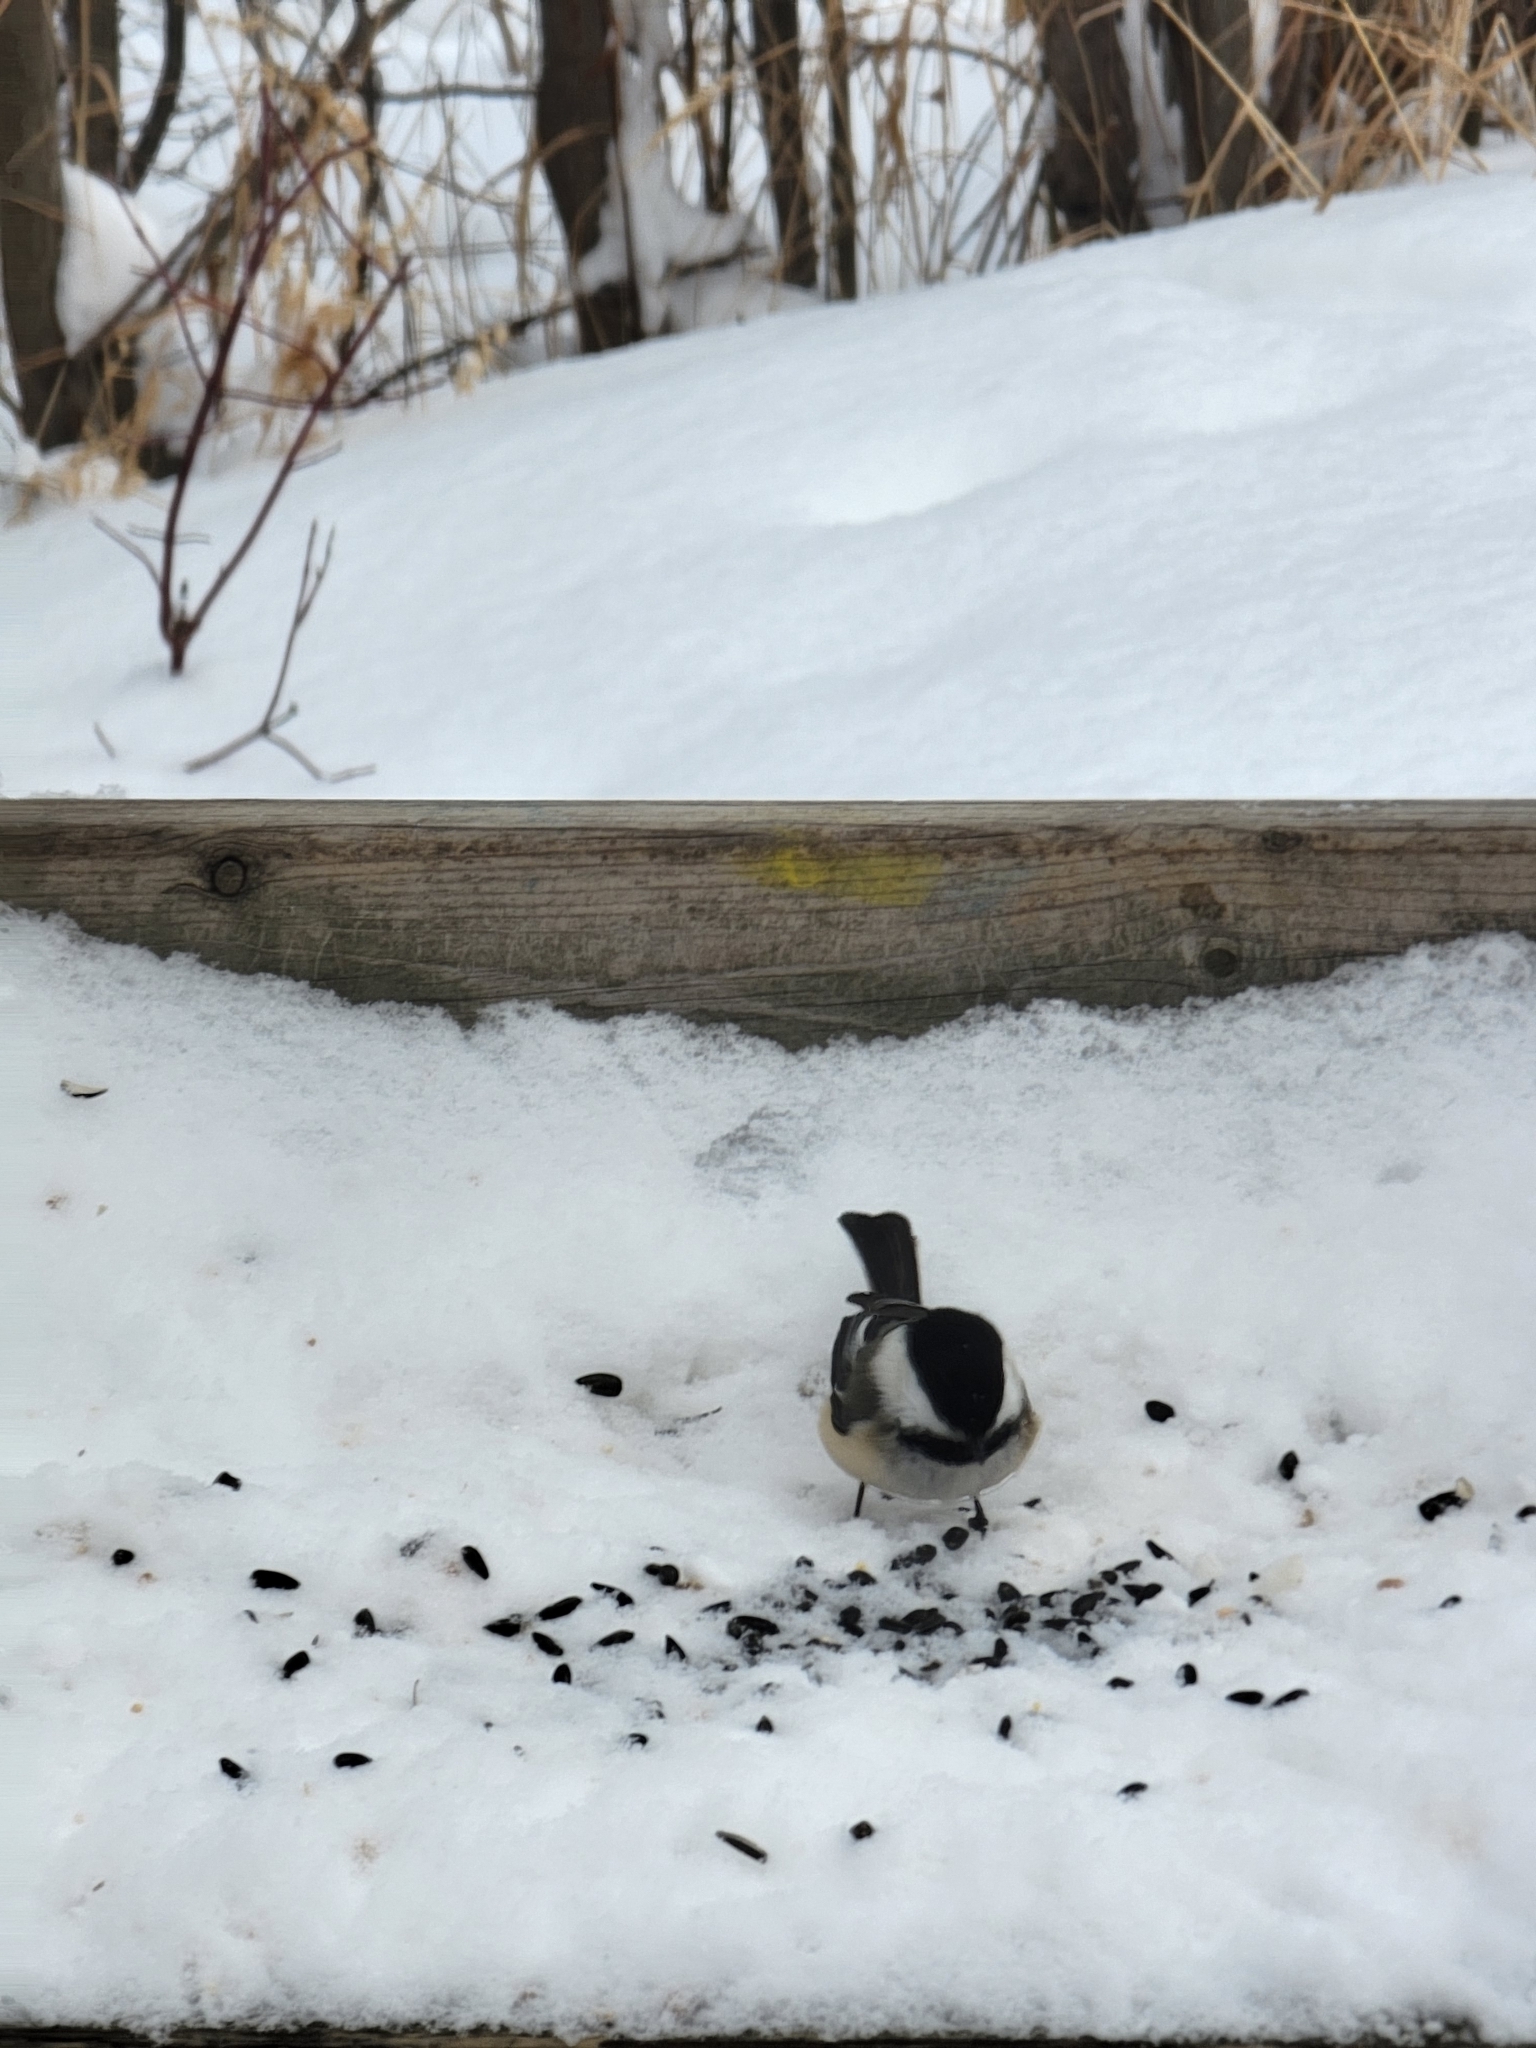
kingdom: Animalia
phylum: Chordata
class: Aves
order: Passeriformes
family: Paridae
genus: Poecile
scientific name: Poecile atricapillus
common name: Black-capped chickadee
